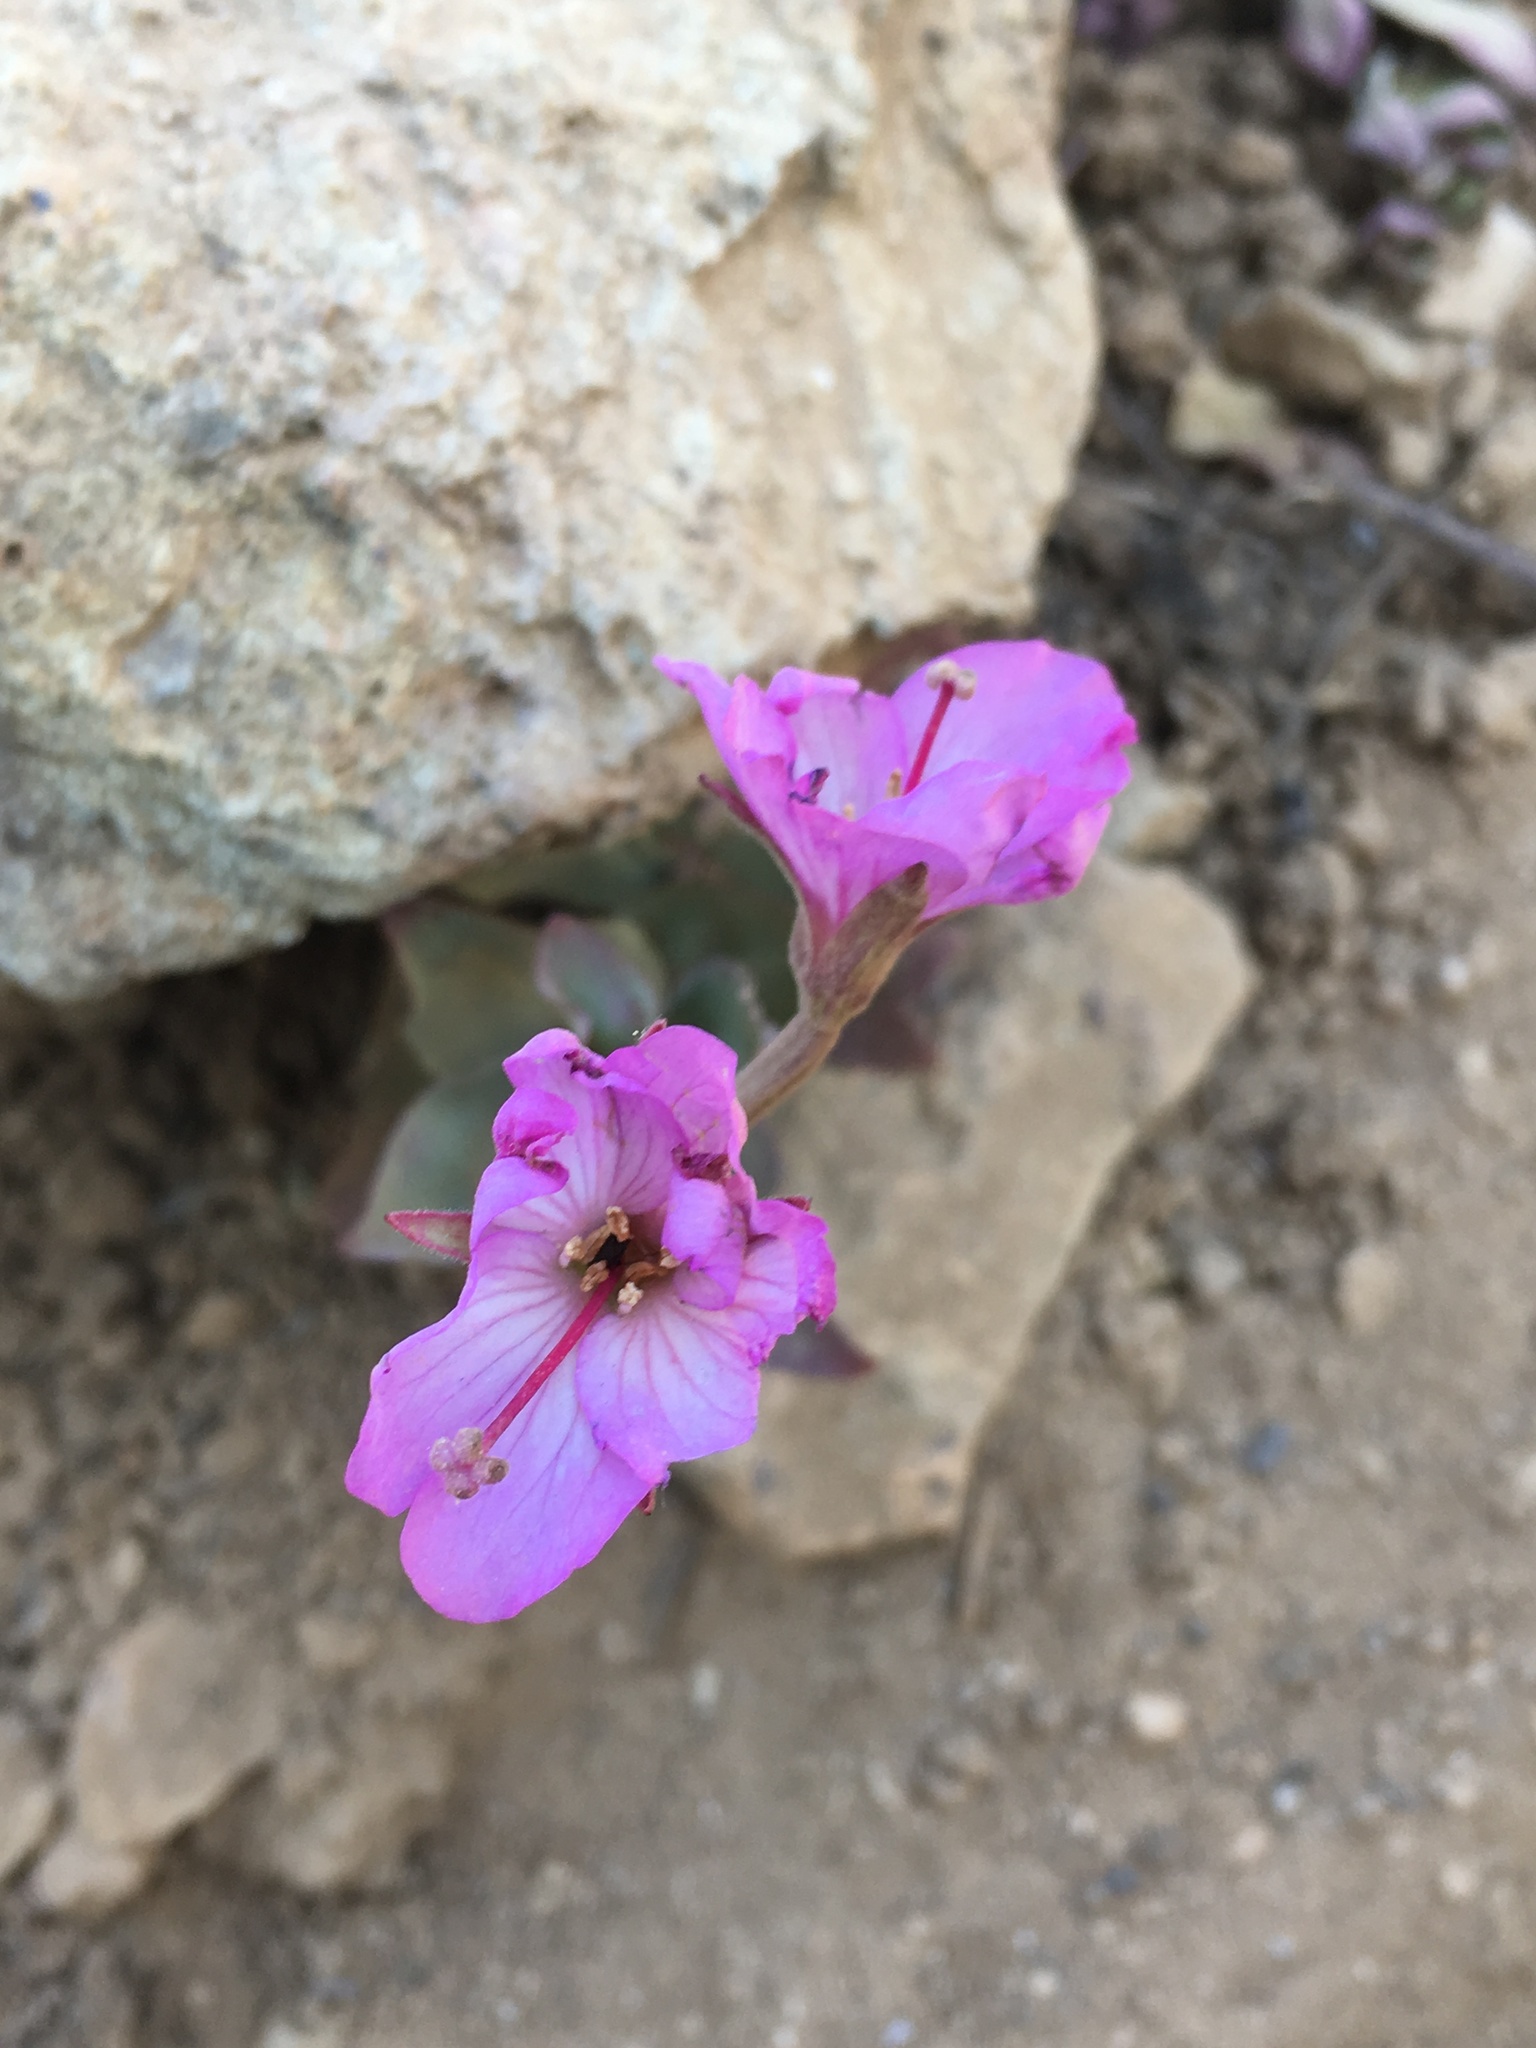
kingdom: Plantae
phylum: Tracheophyta
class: Magnoliopsida
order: Myrtales
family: Onagraceae
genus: Epilobium
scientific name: Epilobium siskiyouense
